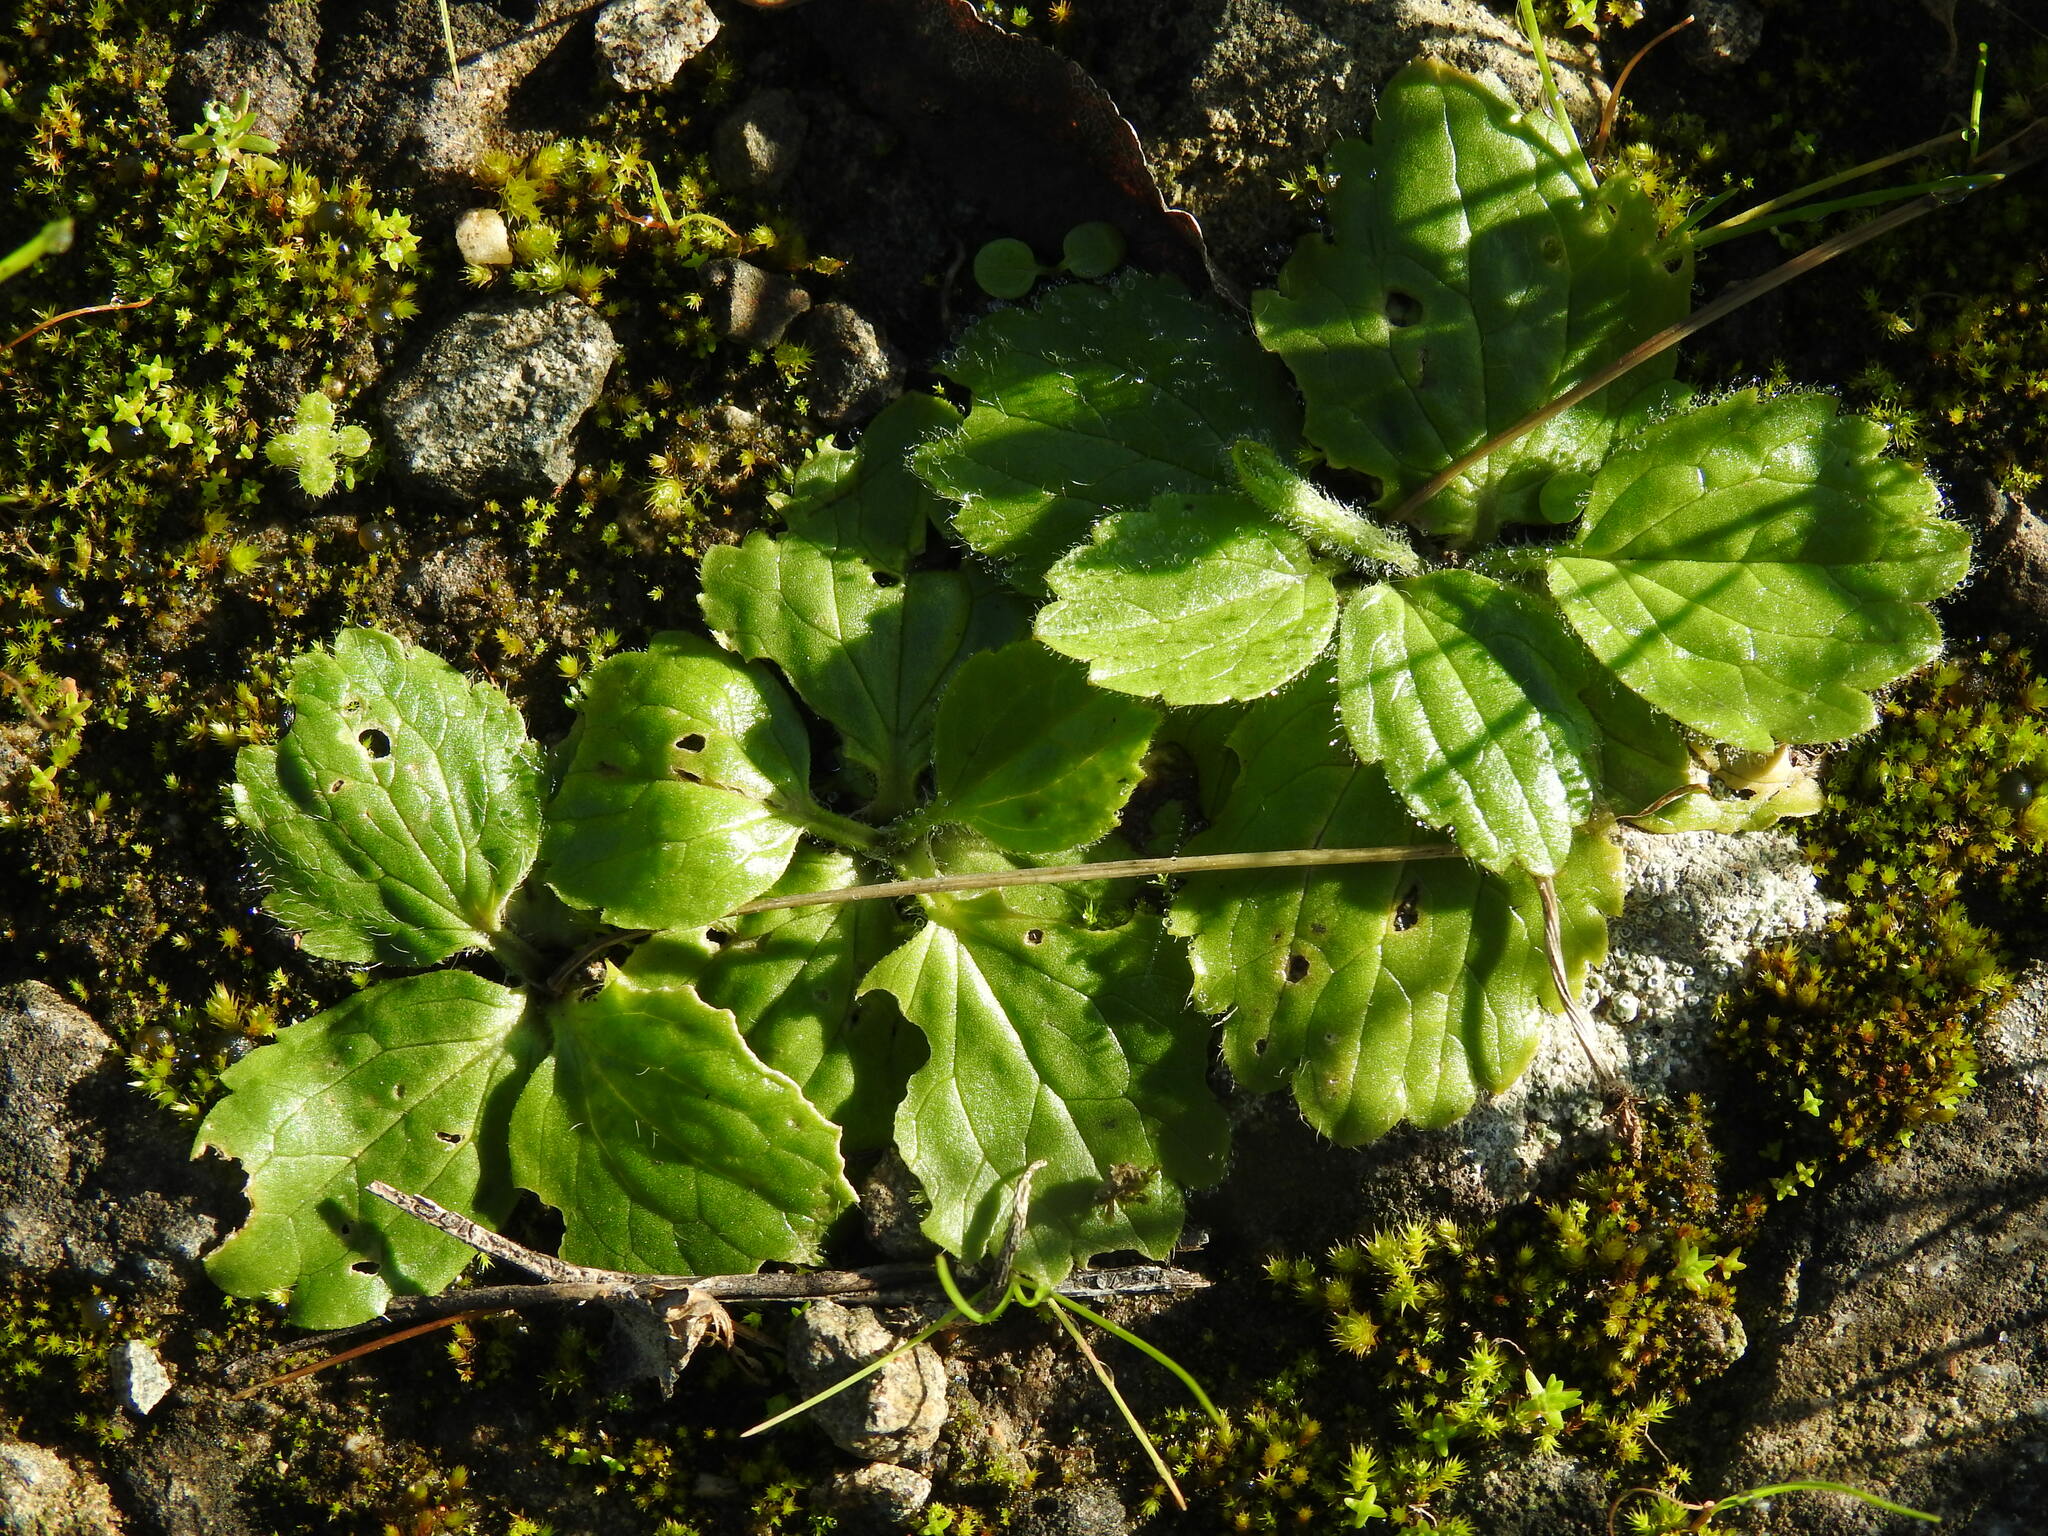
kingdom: Plantae
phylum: Tracheophyta
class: Magnoliopsida
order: Ranunculales
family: Ranunculaceae
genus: Ranunculus
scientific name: Ranunculus bullatus
